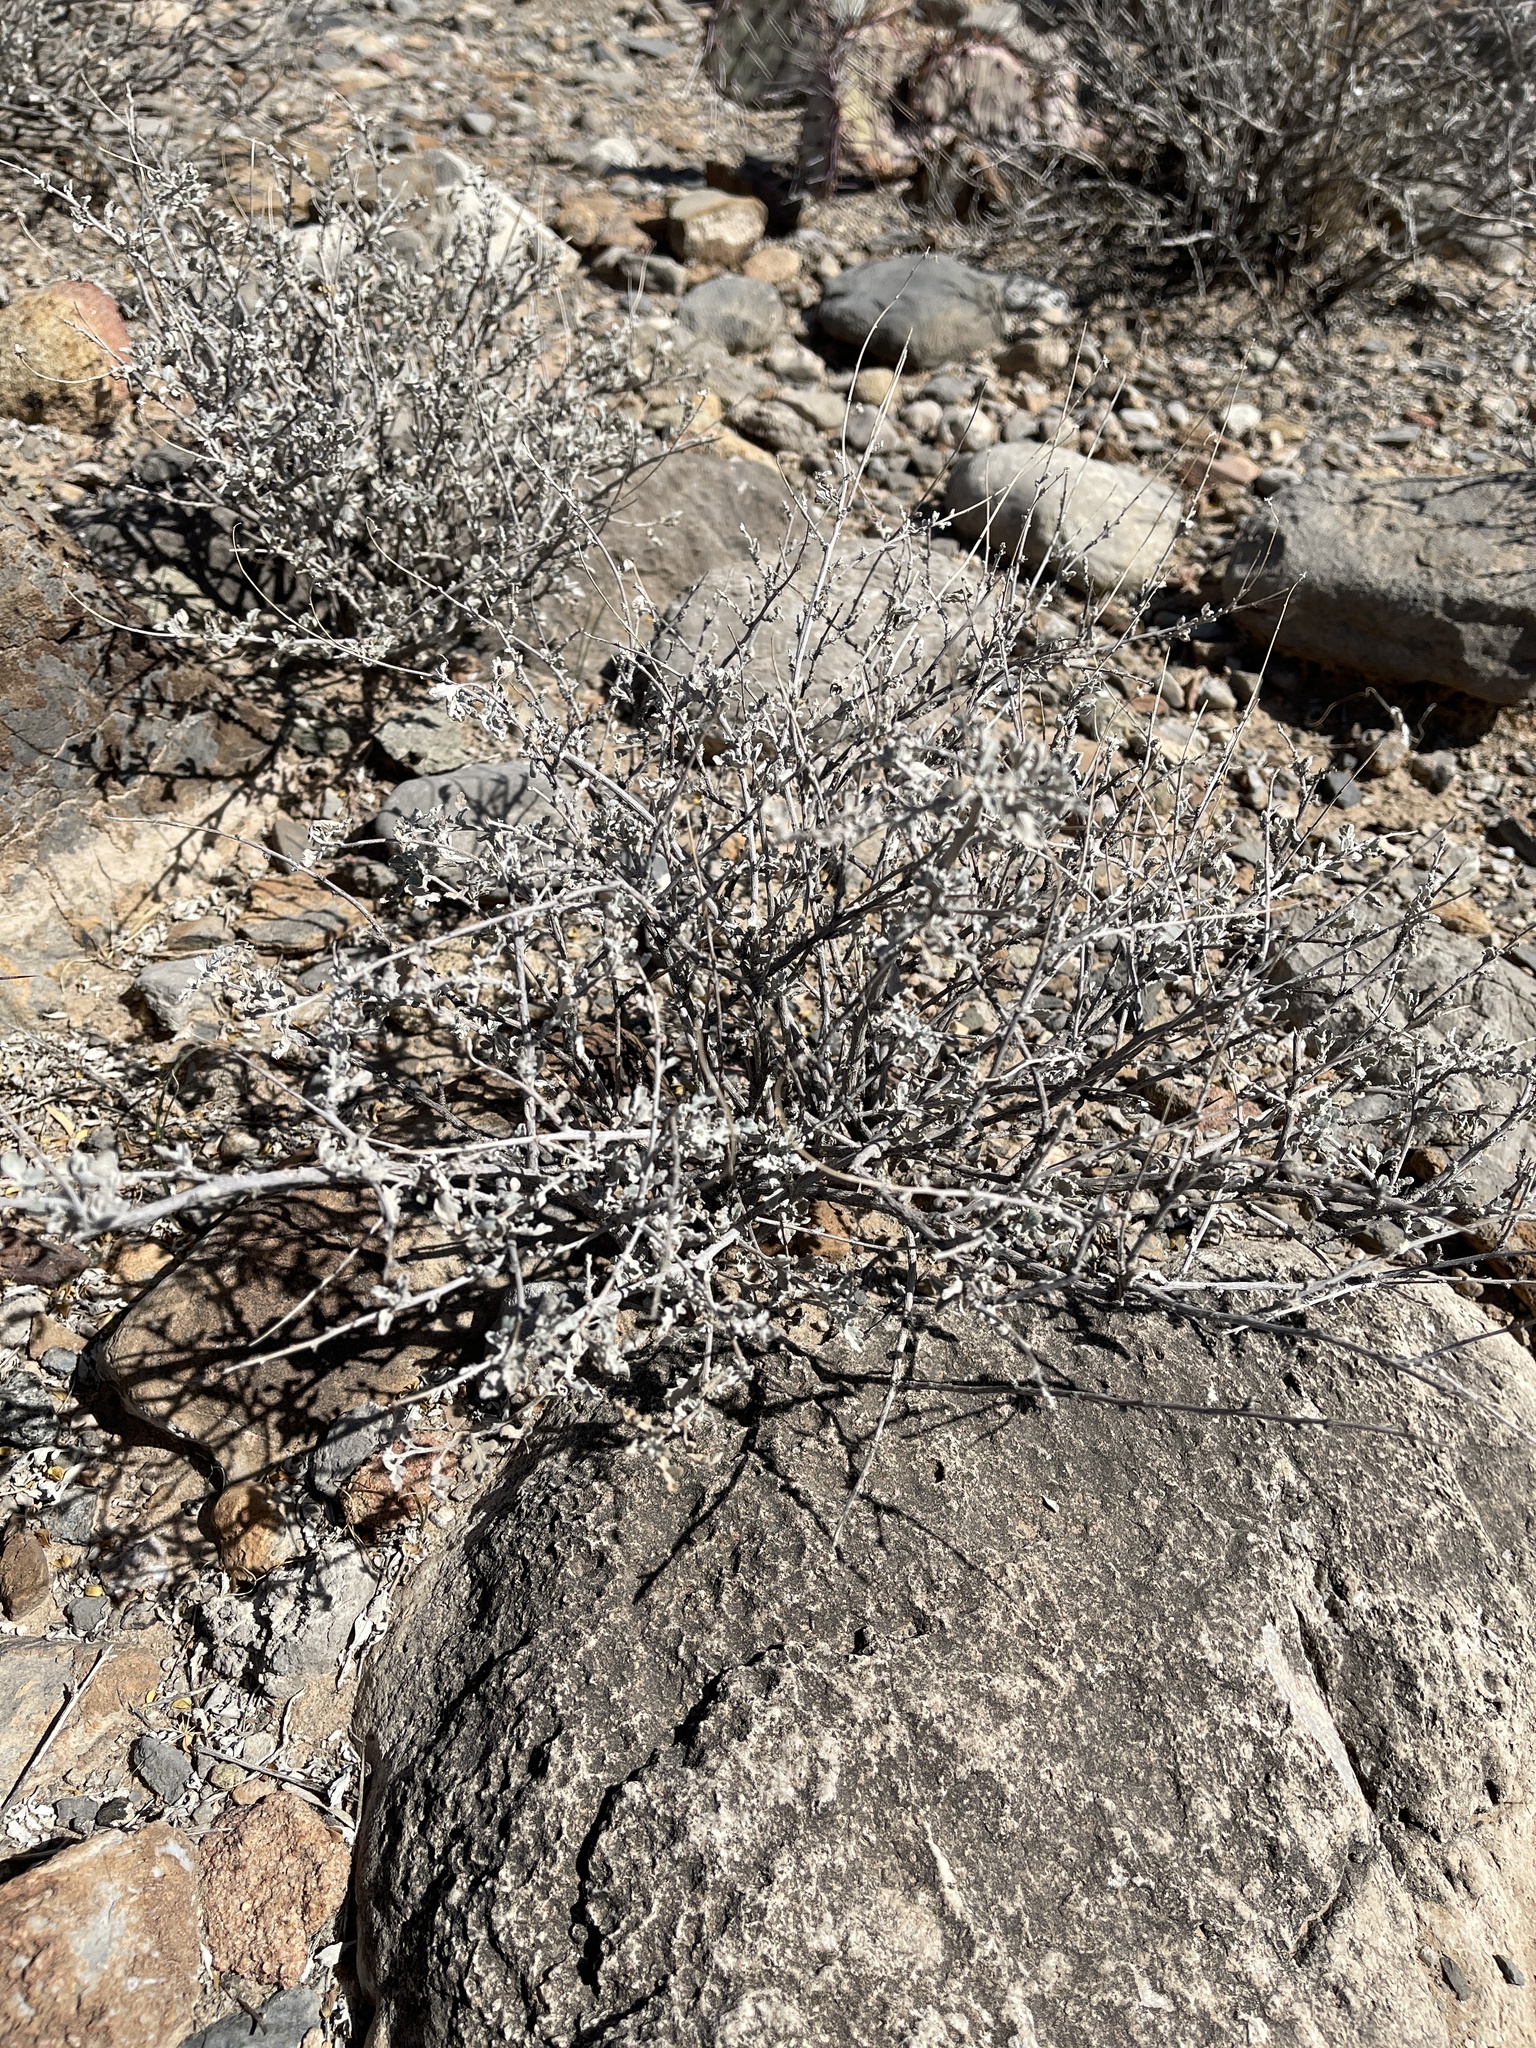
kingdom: Plantae
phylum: Tracheophyta
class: Magnoliopsida
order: Asterales
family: Asteraceae
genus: Parthenium
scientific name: Parthenium incanum
